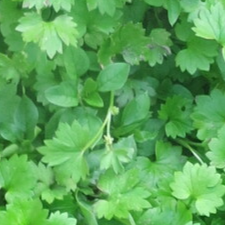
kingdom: Plantae
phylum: Tracheophyta
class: Magnoliopsida
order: Ranunculales
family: Ranunculaceae
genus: Ranunculus
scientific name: Ranunculus platensis
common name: Prairie buttercup
